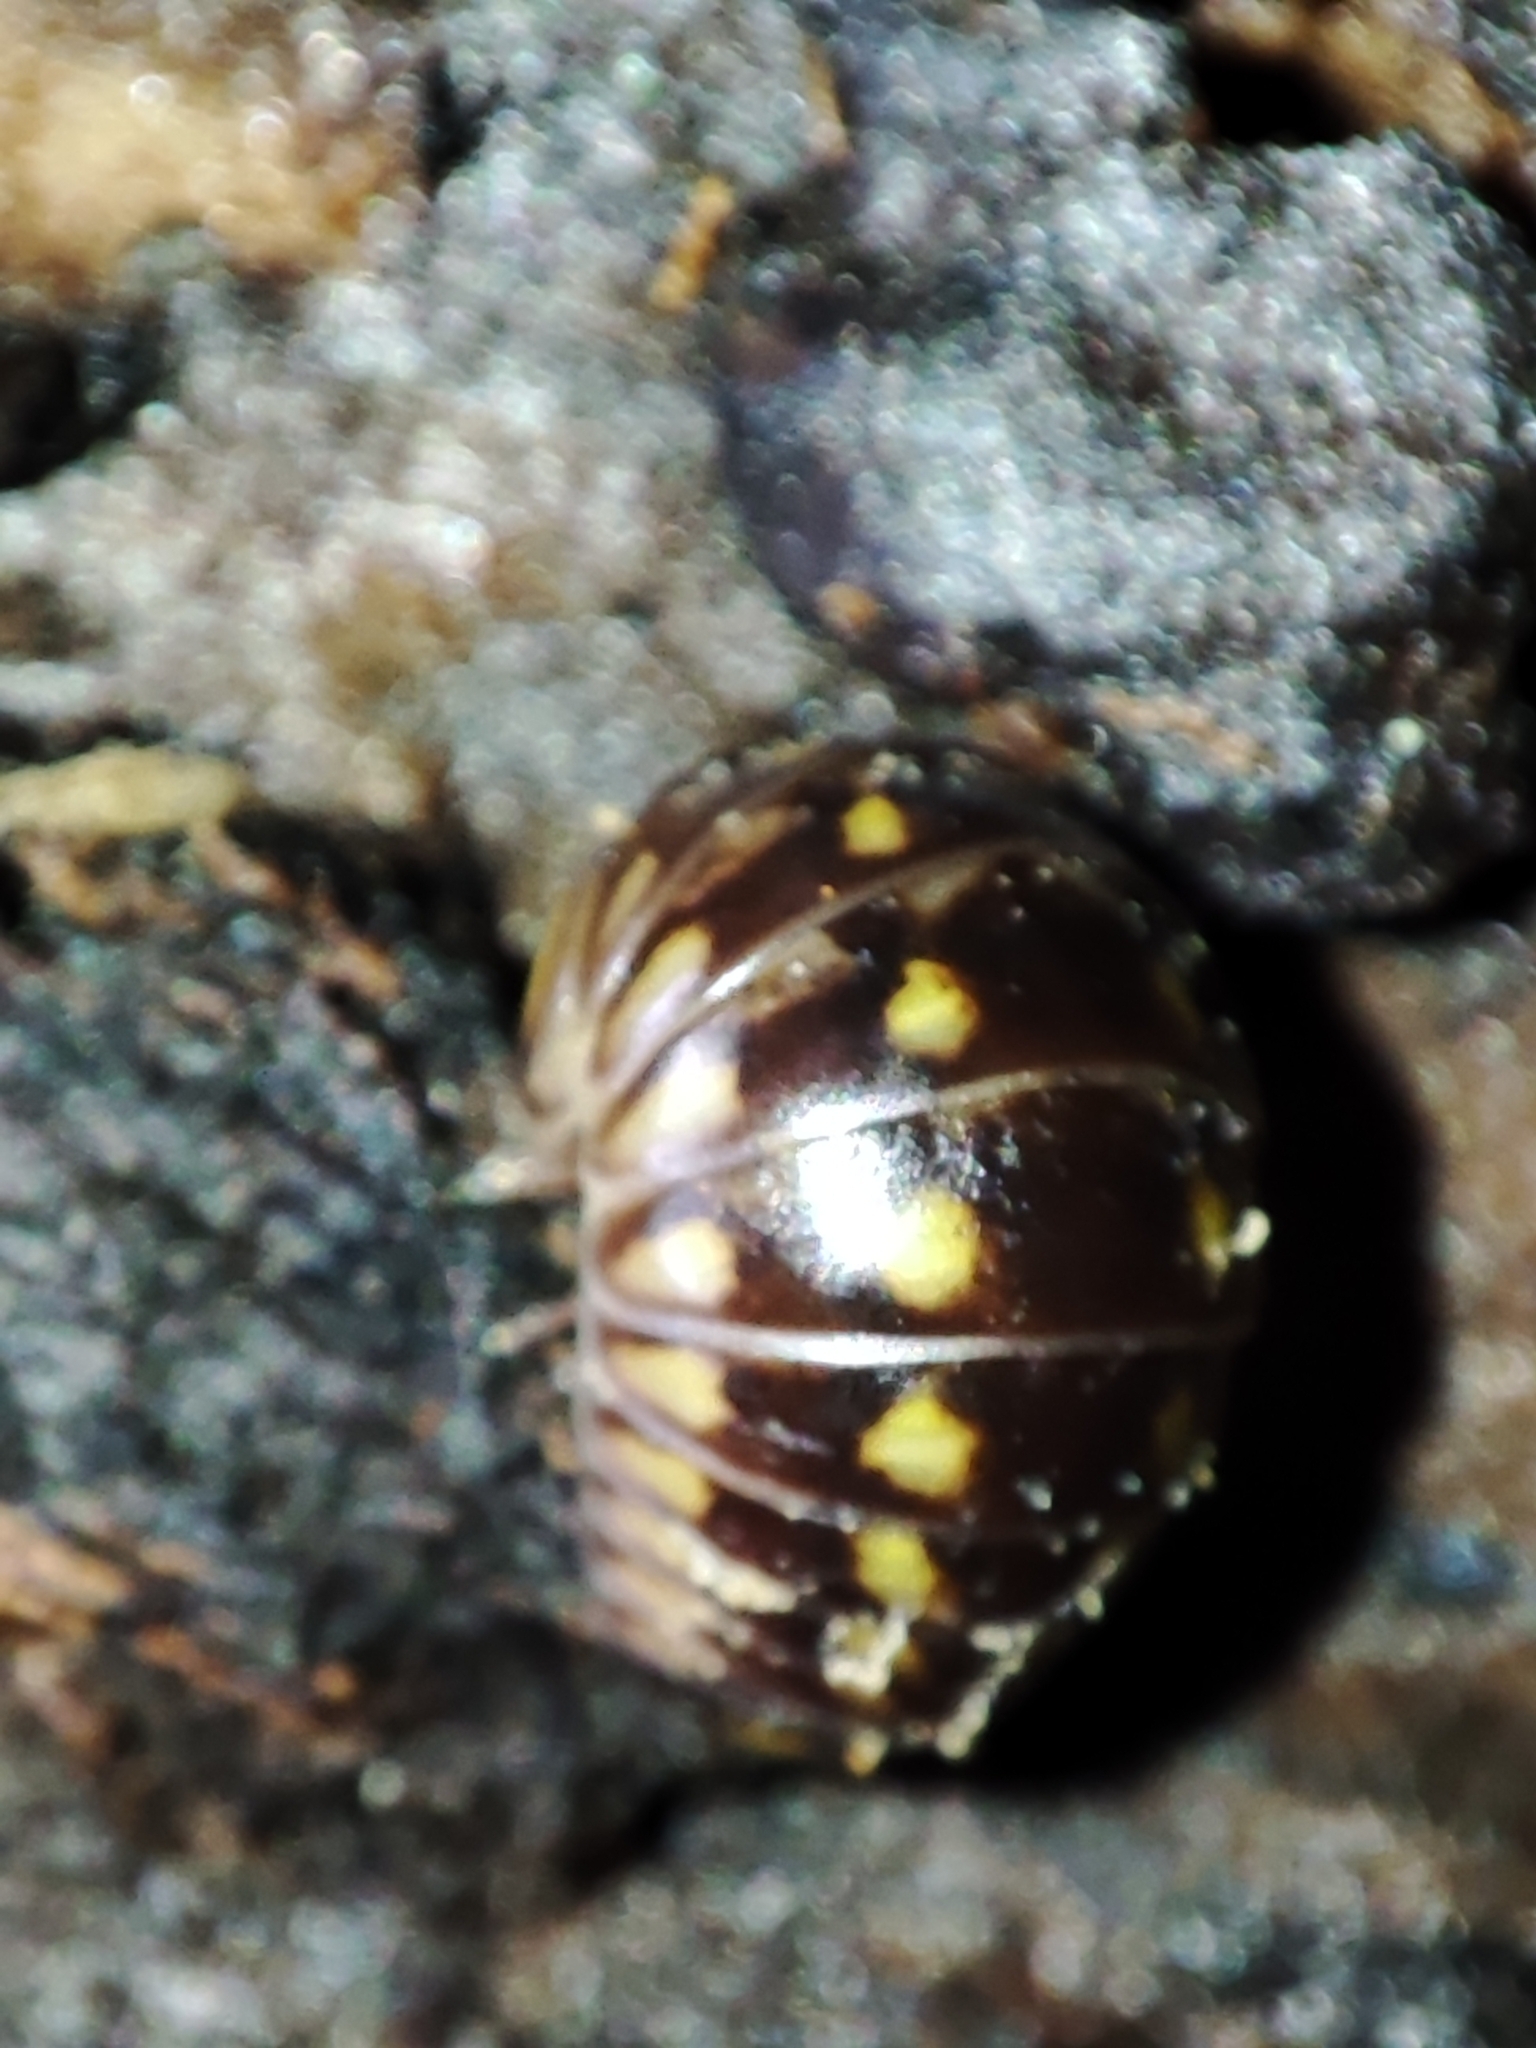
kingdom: Animalia
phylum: Arthropoda
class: Diplopoda
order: Glomerida
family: Glomeridae
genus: Glomeris
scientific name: Glomeris tetrasticha
